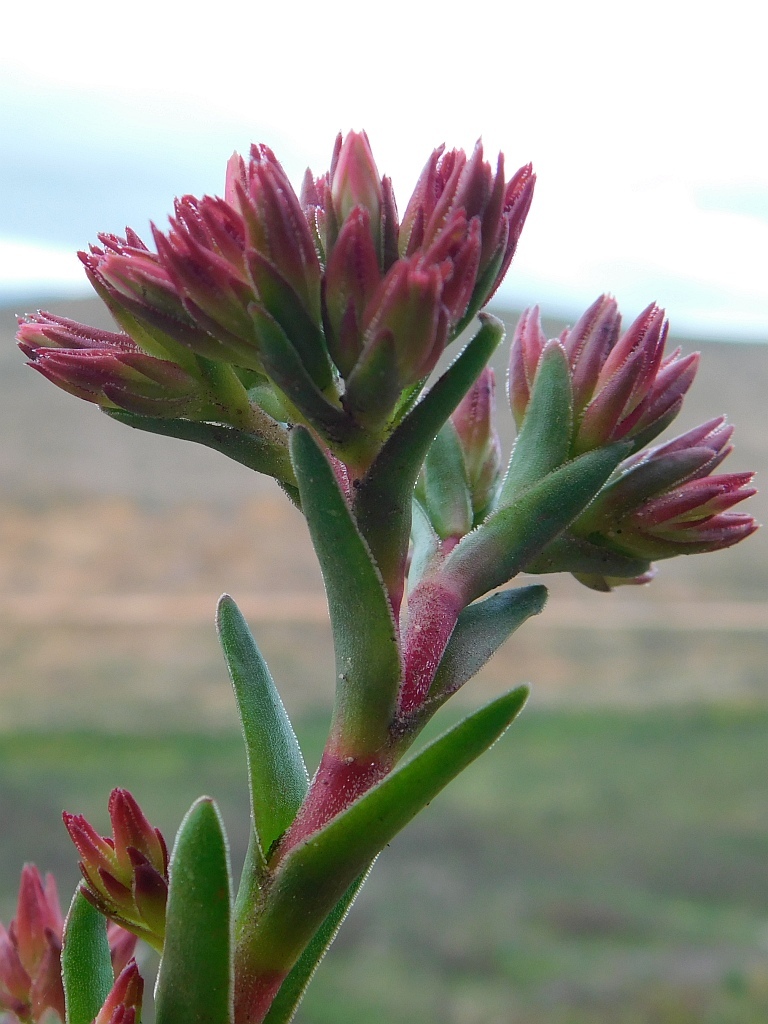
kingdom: Plantae
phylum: Tracheophyta
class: Magnoliopsida
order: Saxifragales
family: Crassulaceae
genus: Crassula
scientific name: Crassula multiflora
